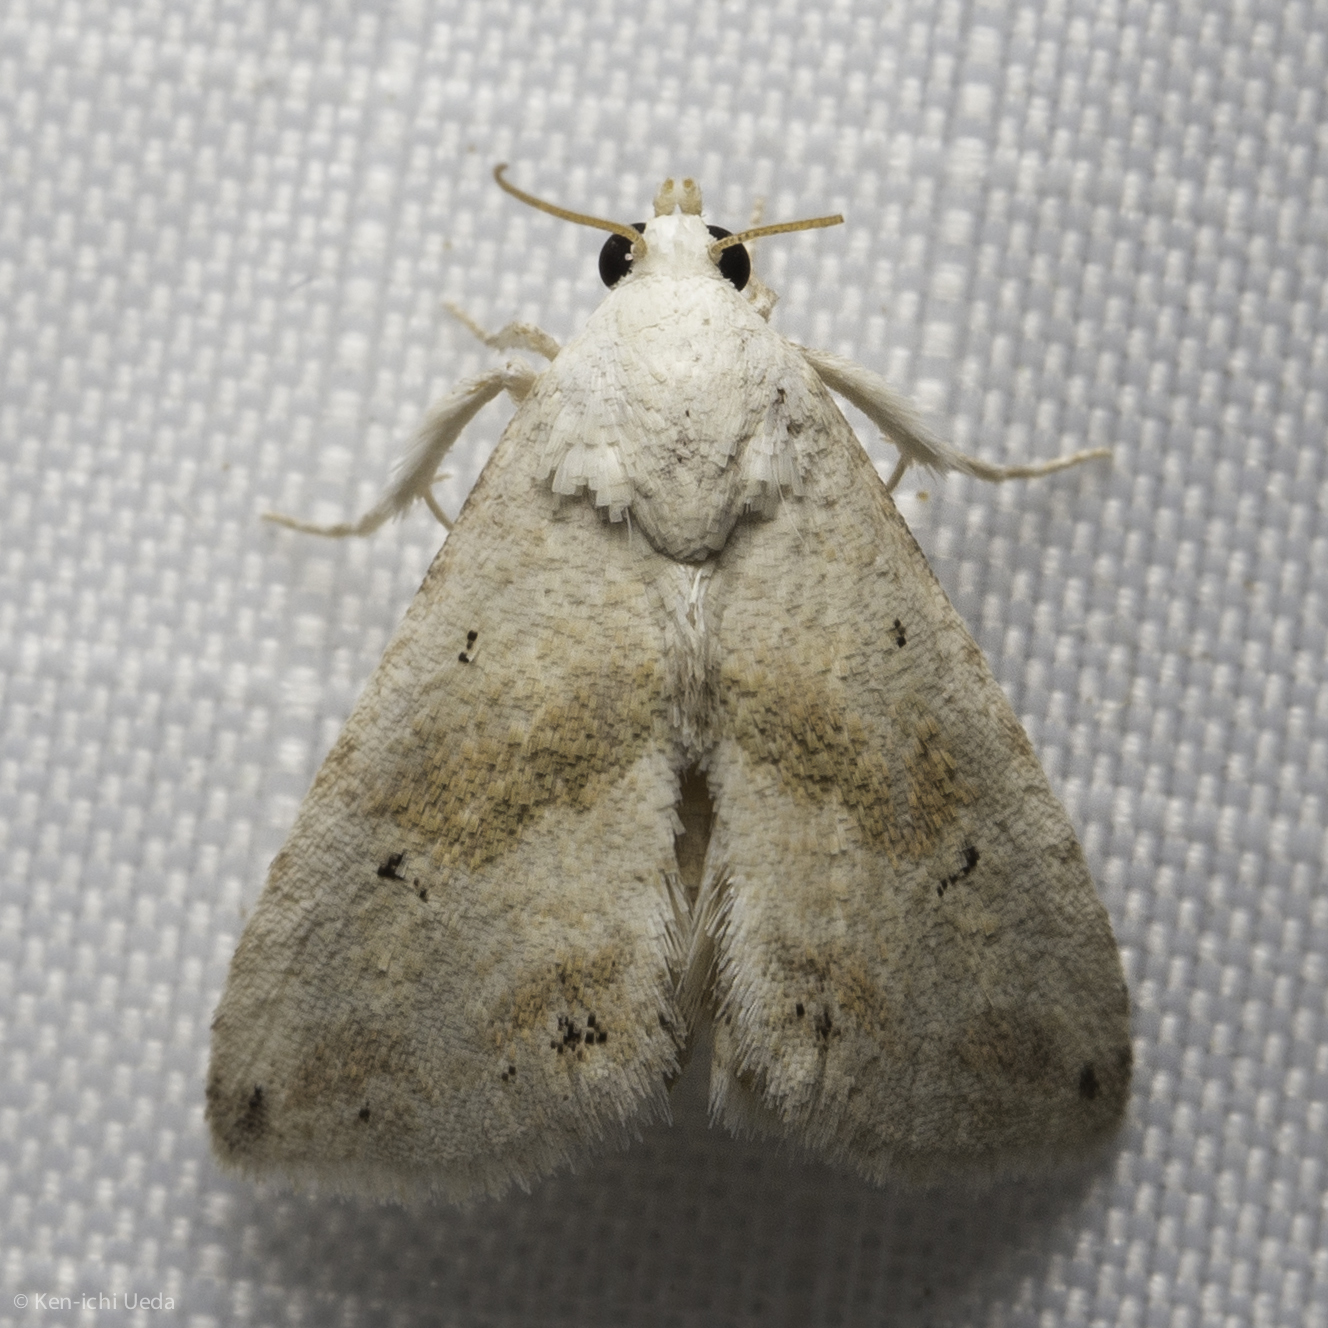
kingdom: Animalia
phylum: Arthropoda
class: Insecta
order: Lepidoptera
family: Noctuidae
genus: Eublemma
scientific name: Eublemma minima
